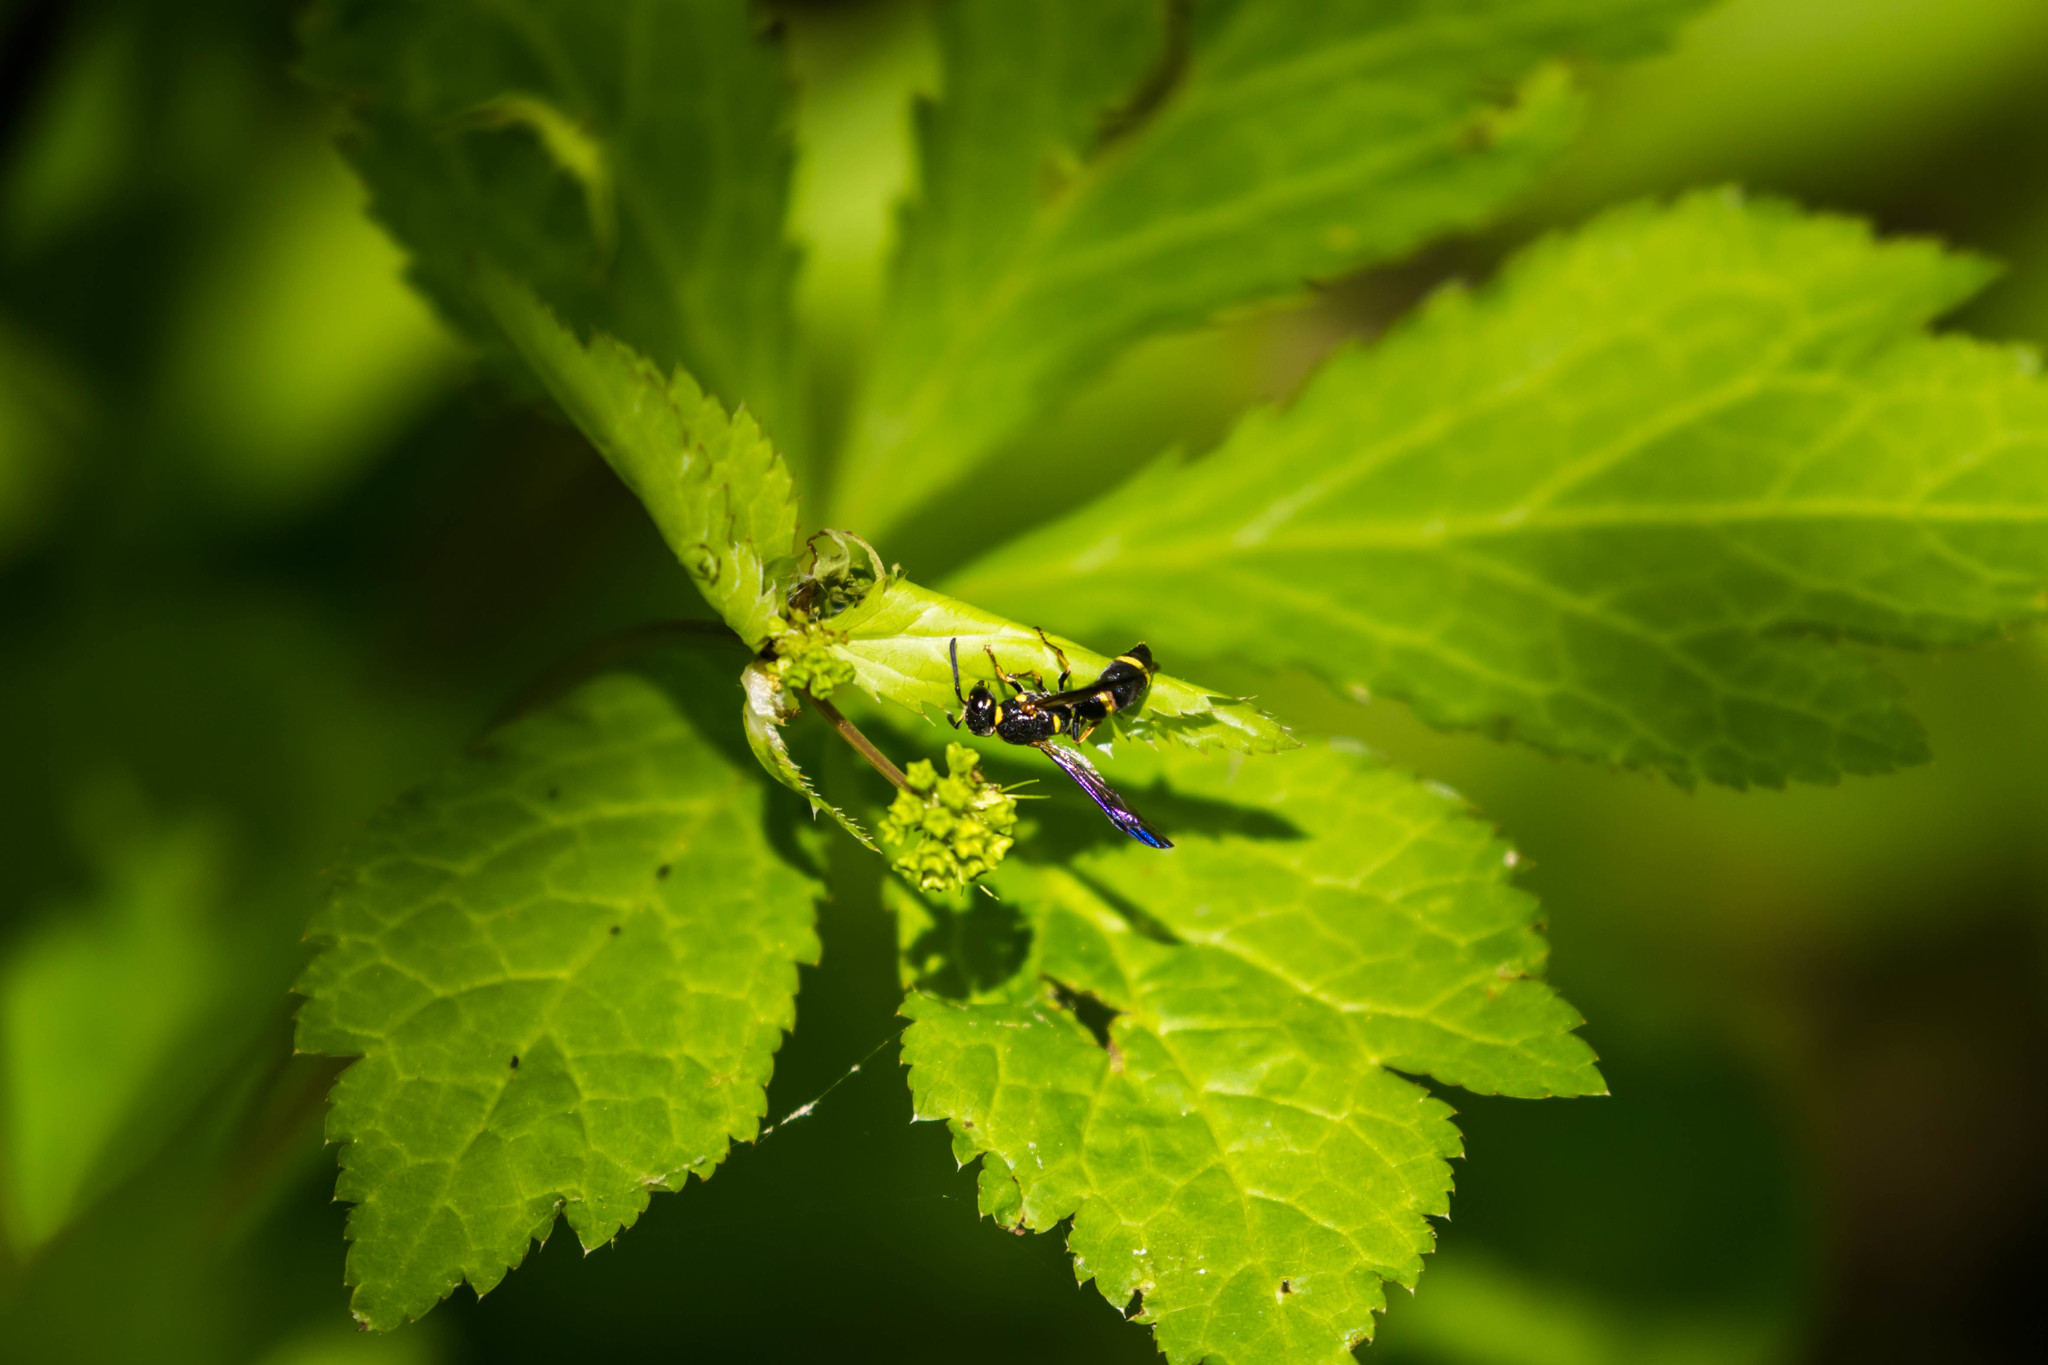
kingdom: Animalia
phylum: Arthropoda
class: Insecta
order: Hymenoptera
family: Eumenidae
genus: Parancistrocerus
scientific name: Parancistrocerus perennis
